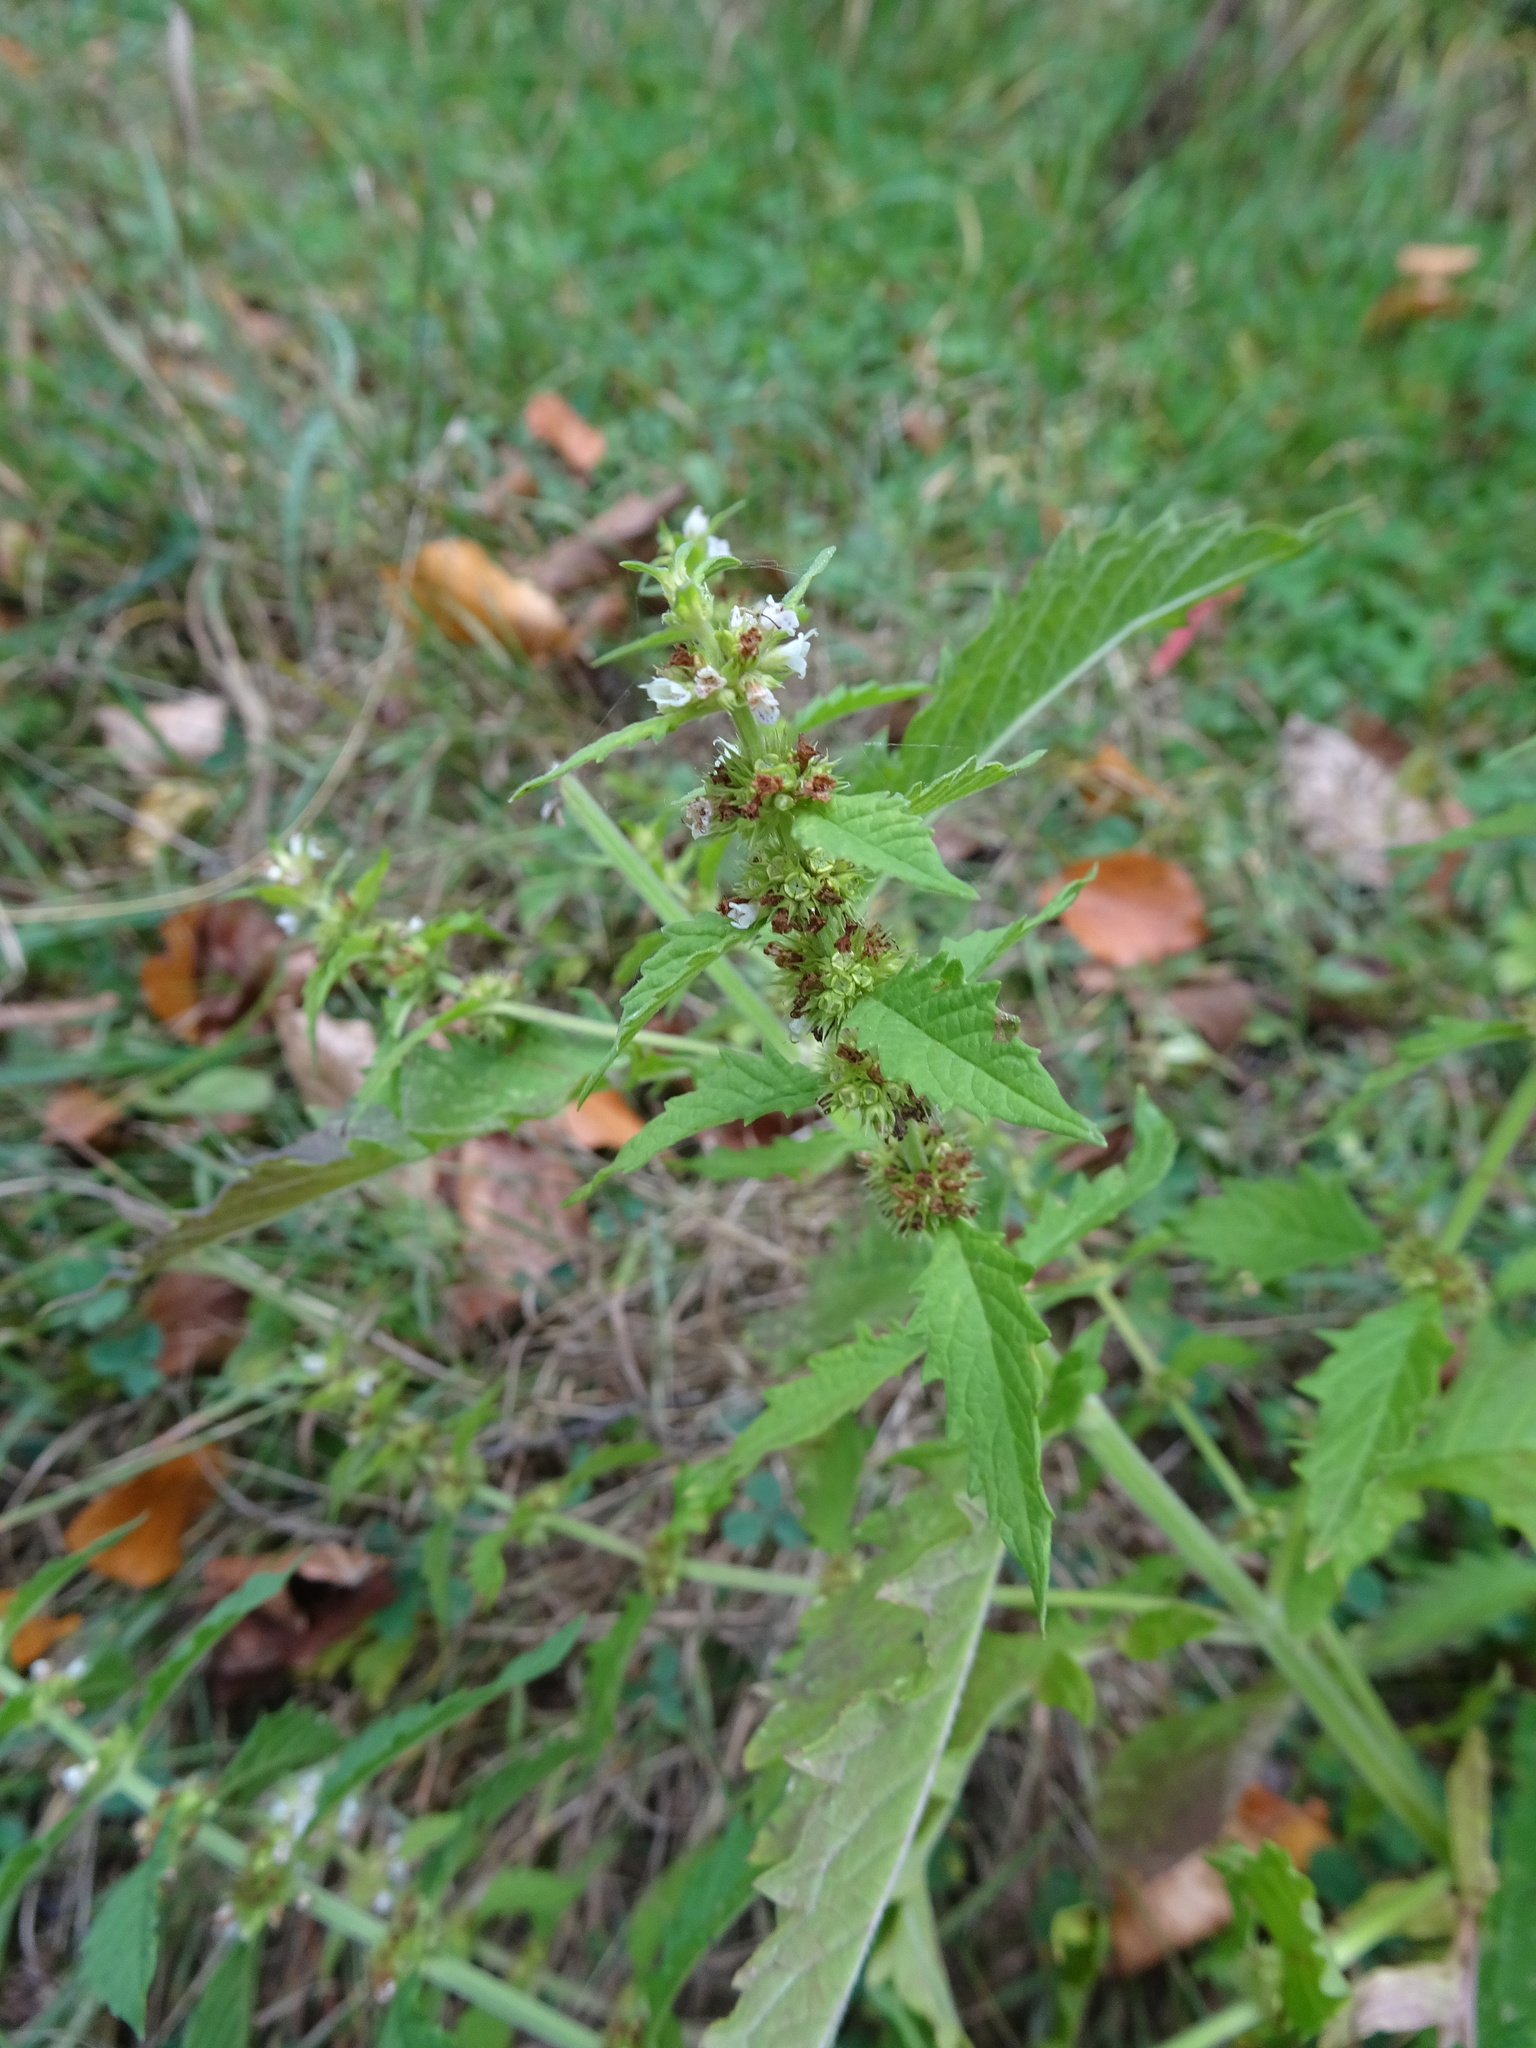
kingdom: Plantae
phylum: Tracheophyta
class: Magnoliopsida
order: Lamiales
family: Lamiaceae
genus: Lycopus
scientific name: Lycopus europaeus
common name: European bugleweed
